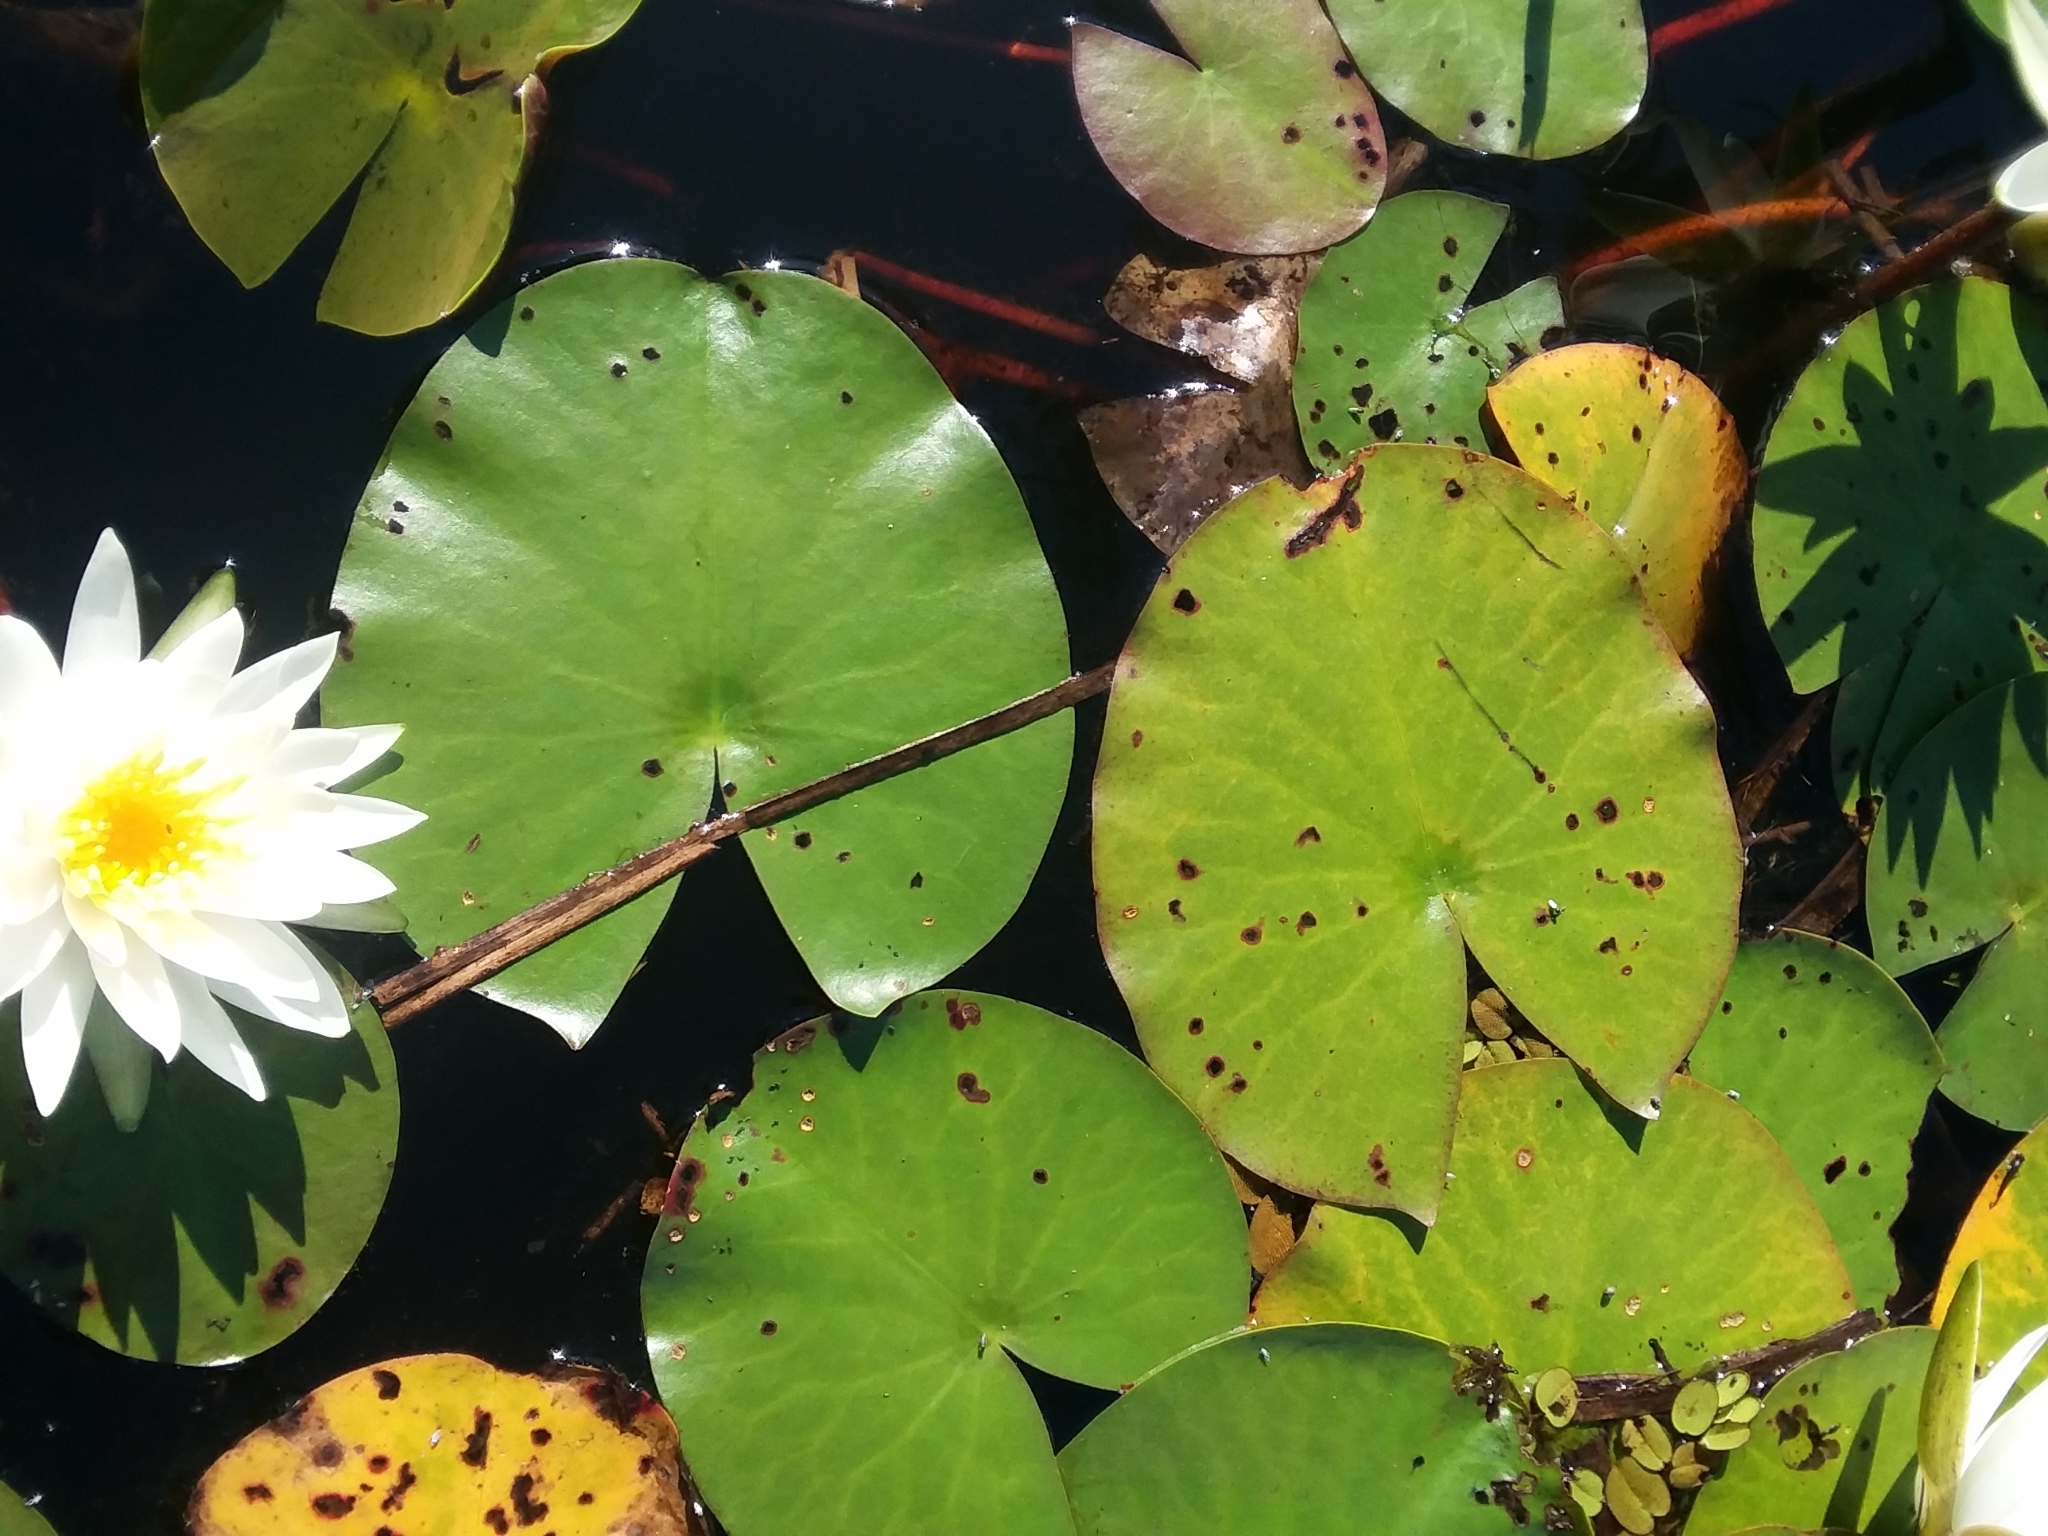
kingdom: Plantae
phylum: Tracheophyta
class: Magnoliopsida
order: Nymphaeales
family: Nymphaeaceae
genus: Nymphaea
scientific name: Nymphaea odorata
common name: Fragrant water-lily
